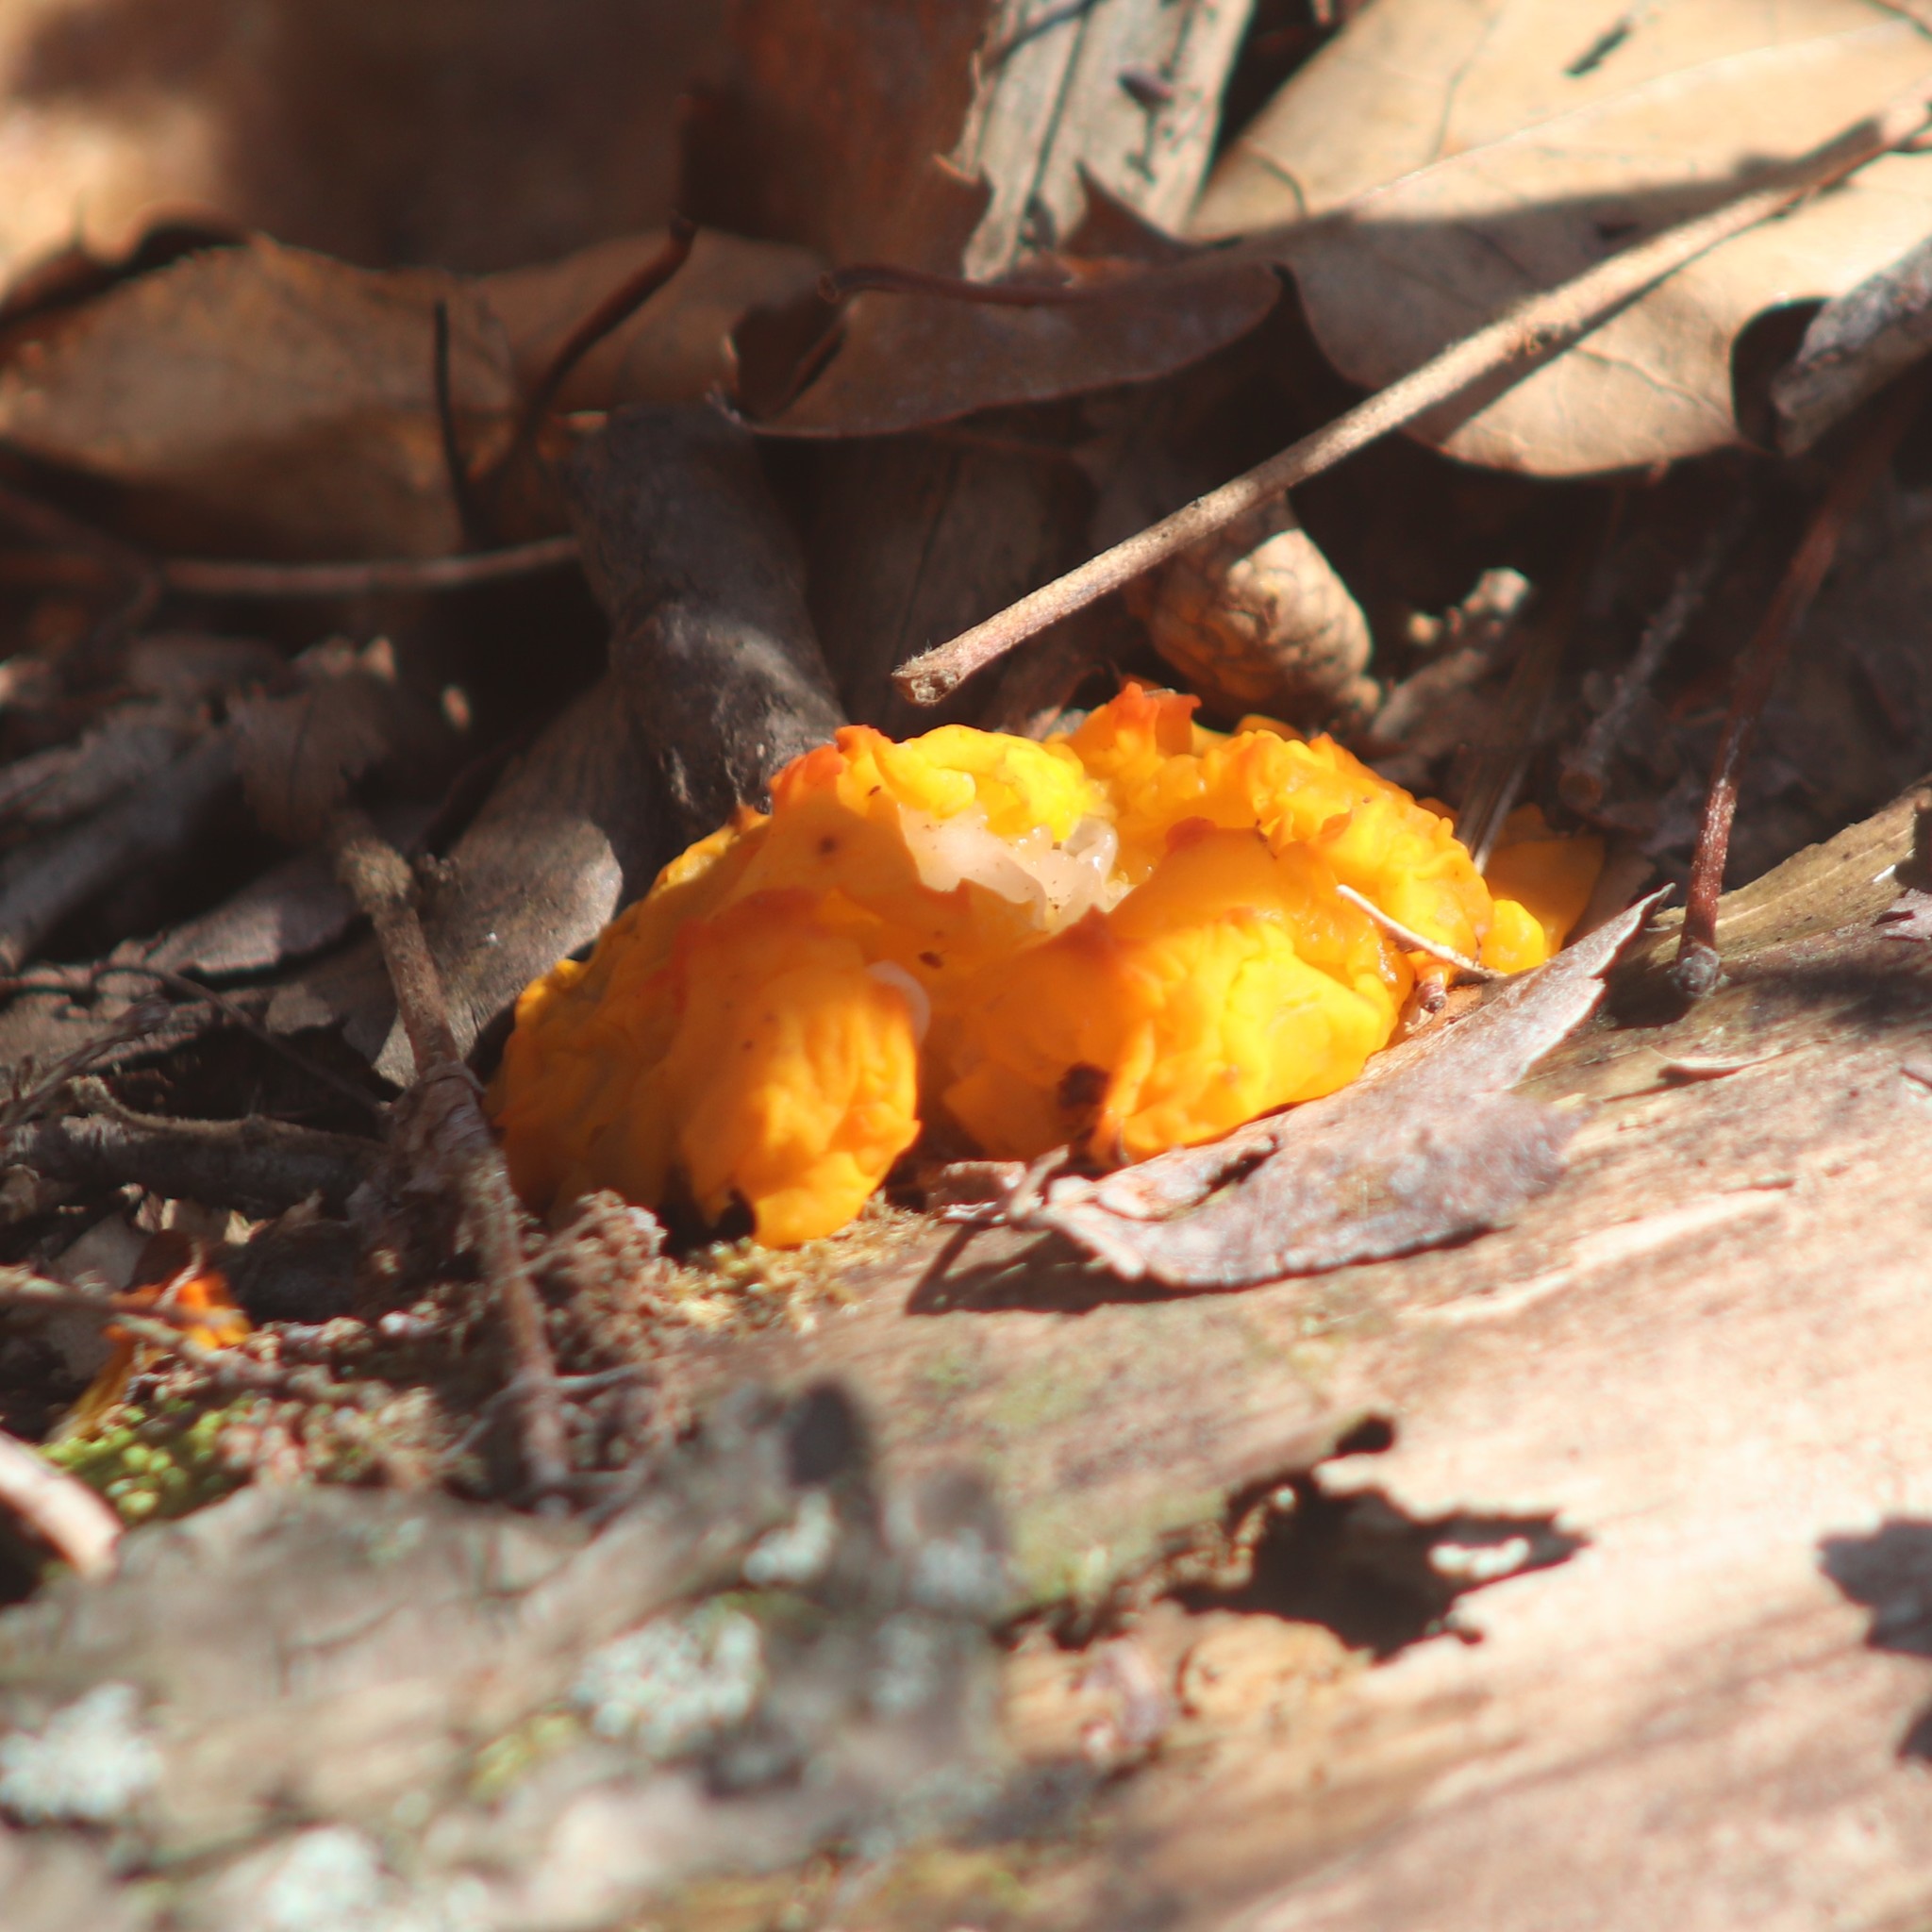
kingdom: Fungi
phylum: Basidiomycota
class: Tremellomycetes
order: Tremellales
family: Tremellaceae
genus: Tremella
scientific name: Tremella mesenterica
